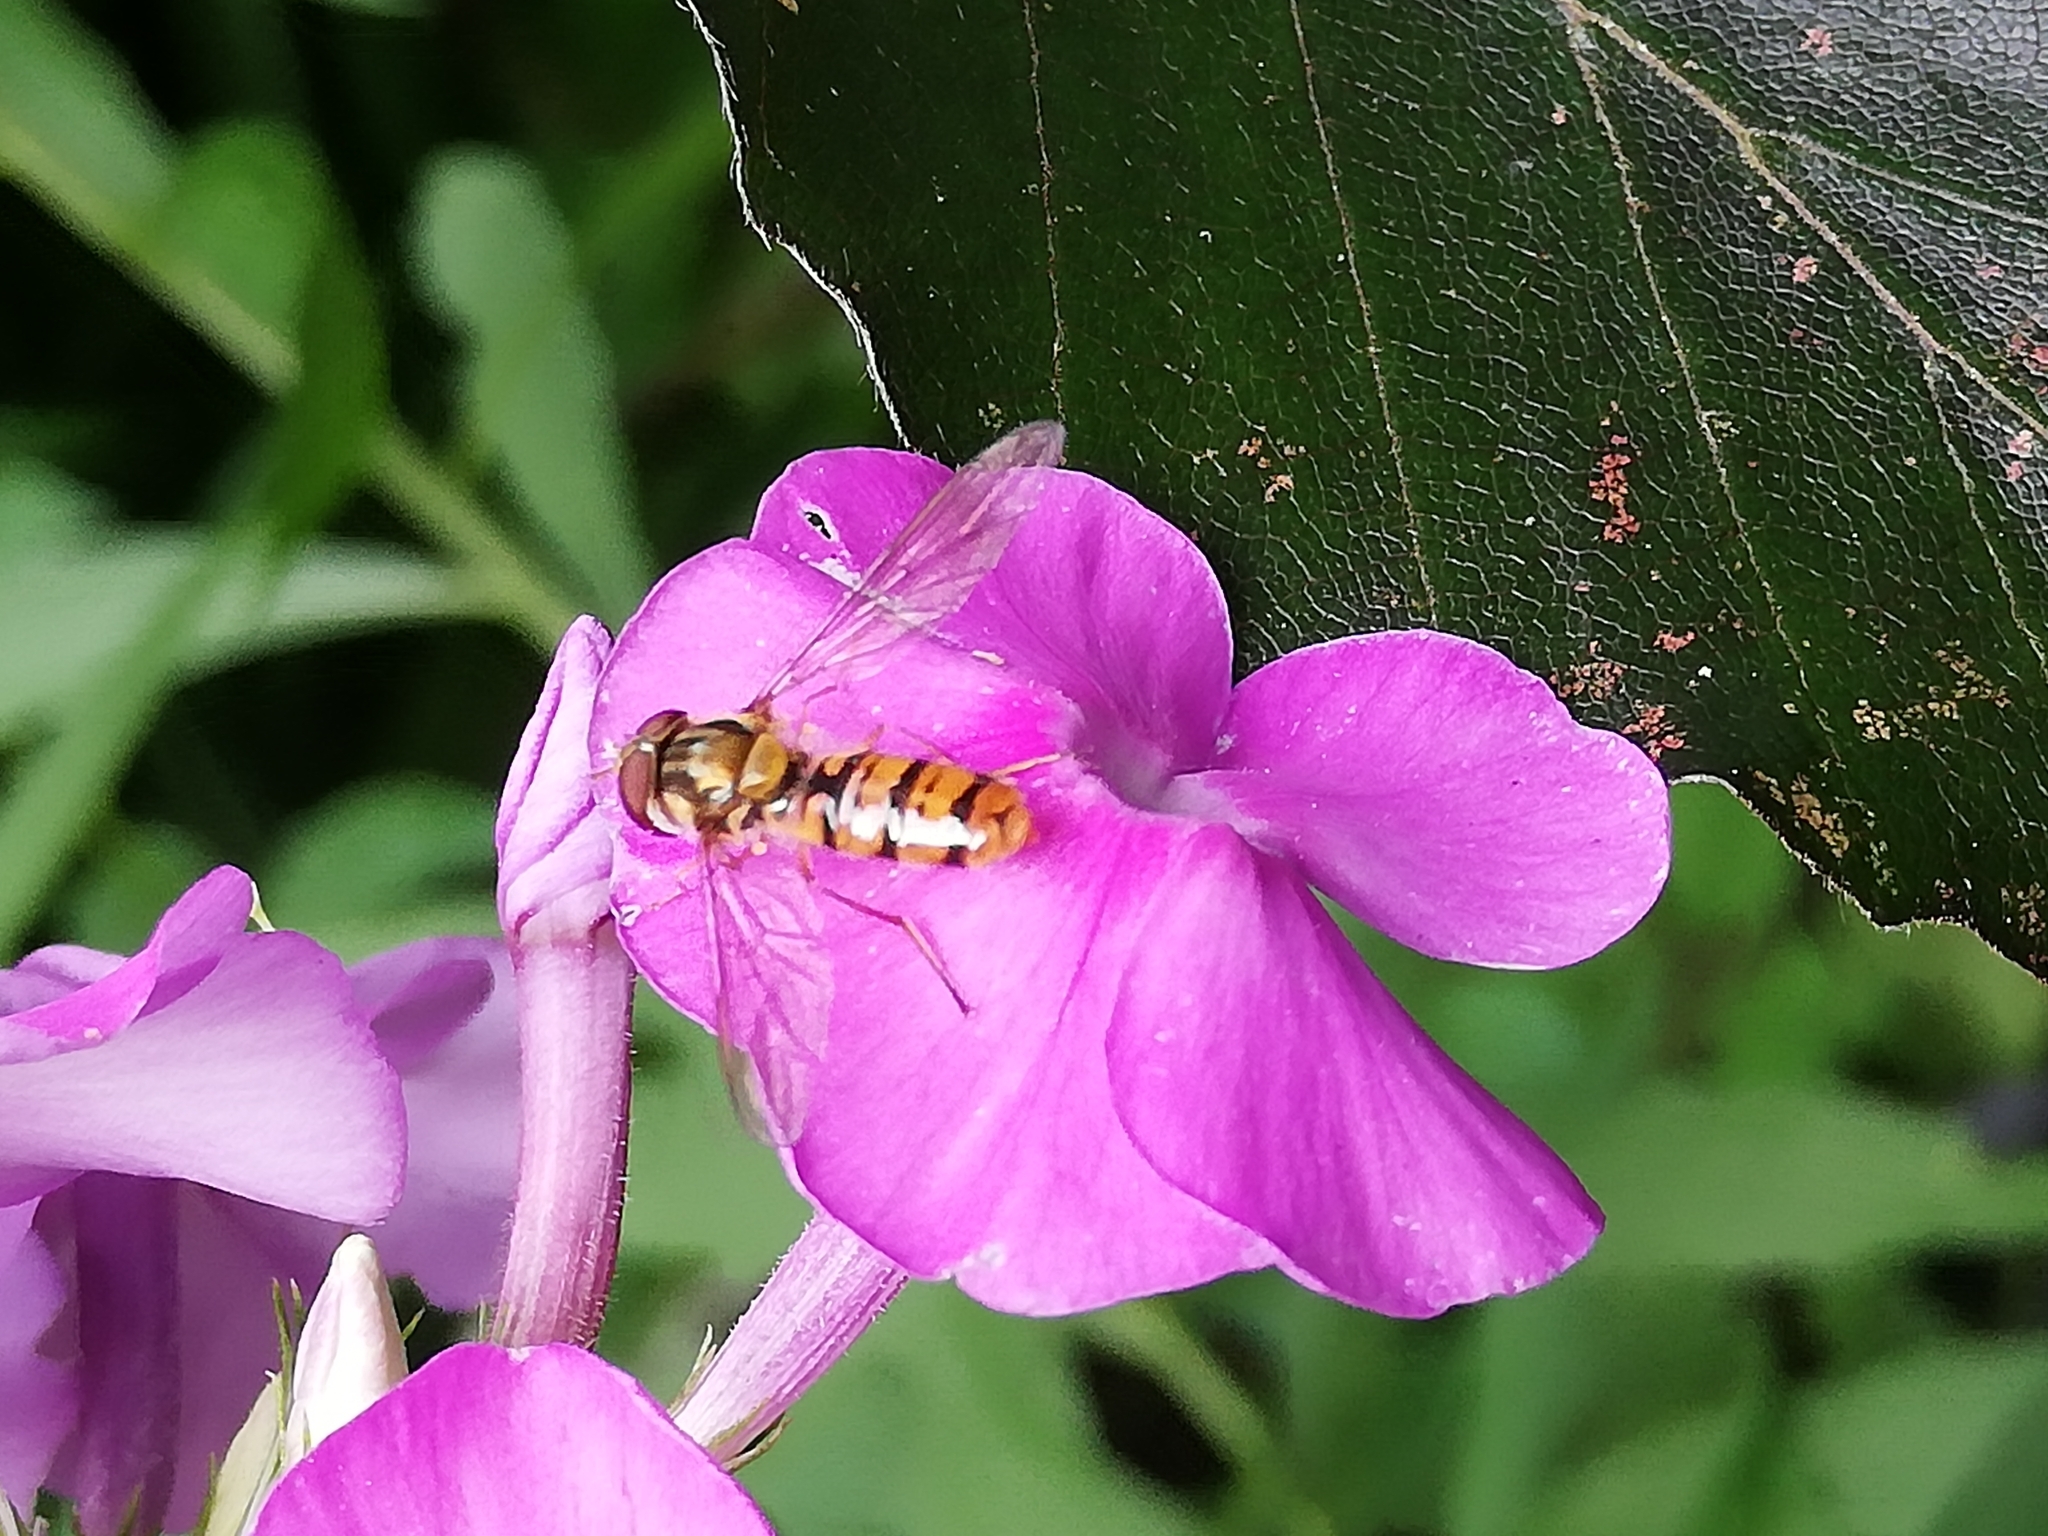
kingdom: Animalia
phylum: Arthropoda
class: Insecta
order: Diptera
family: Syrphidae
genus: Episyrphus
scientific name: Episyrphus balteatus
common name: Marmalade hoverfly
